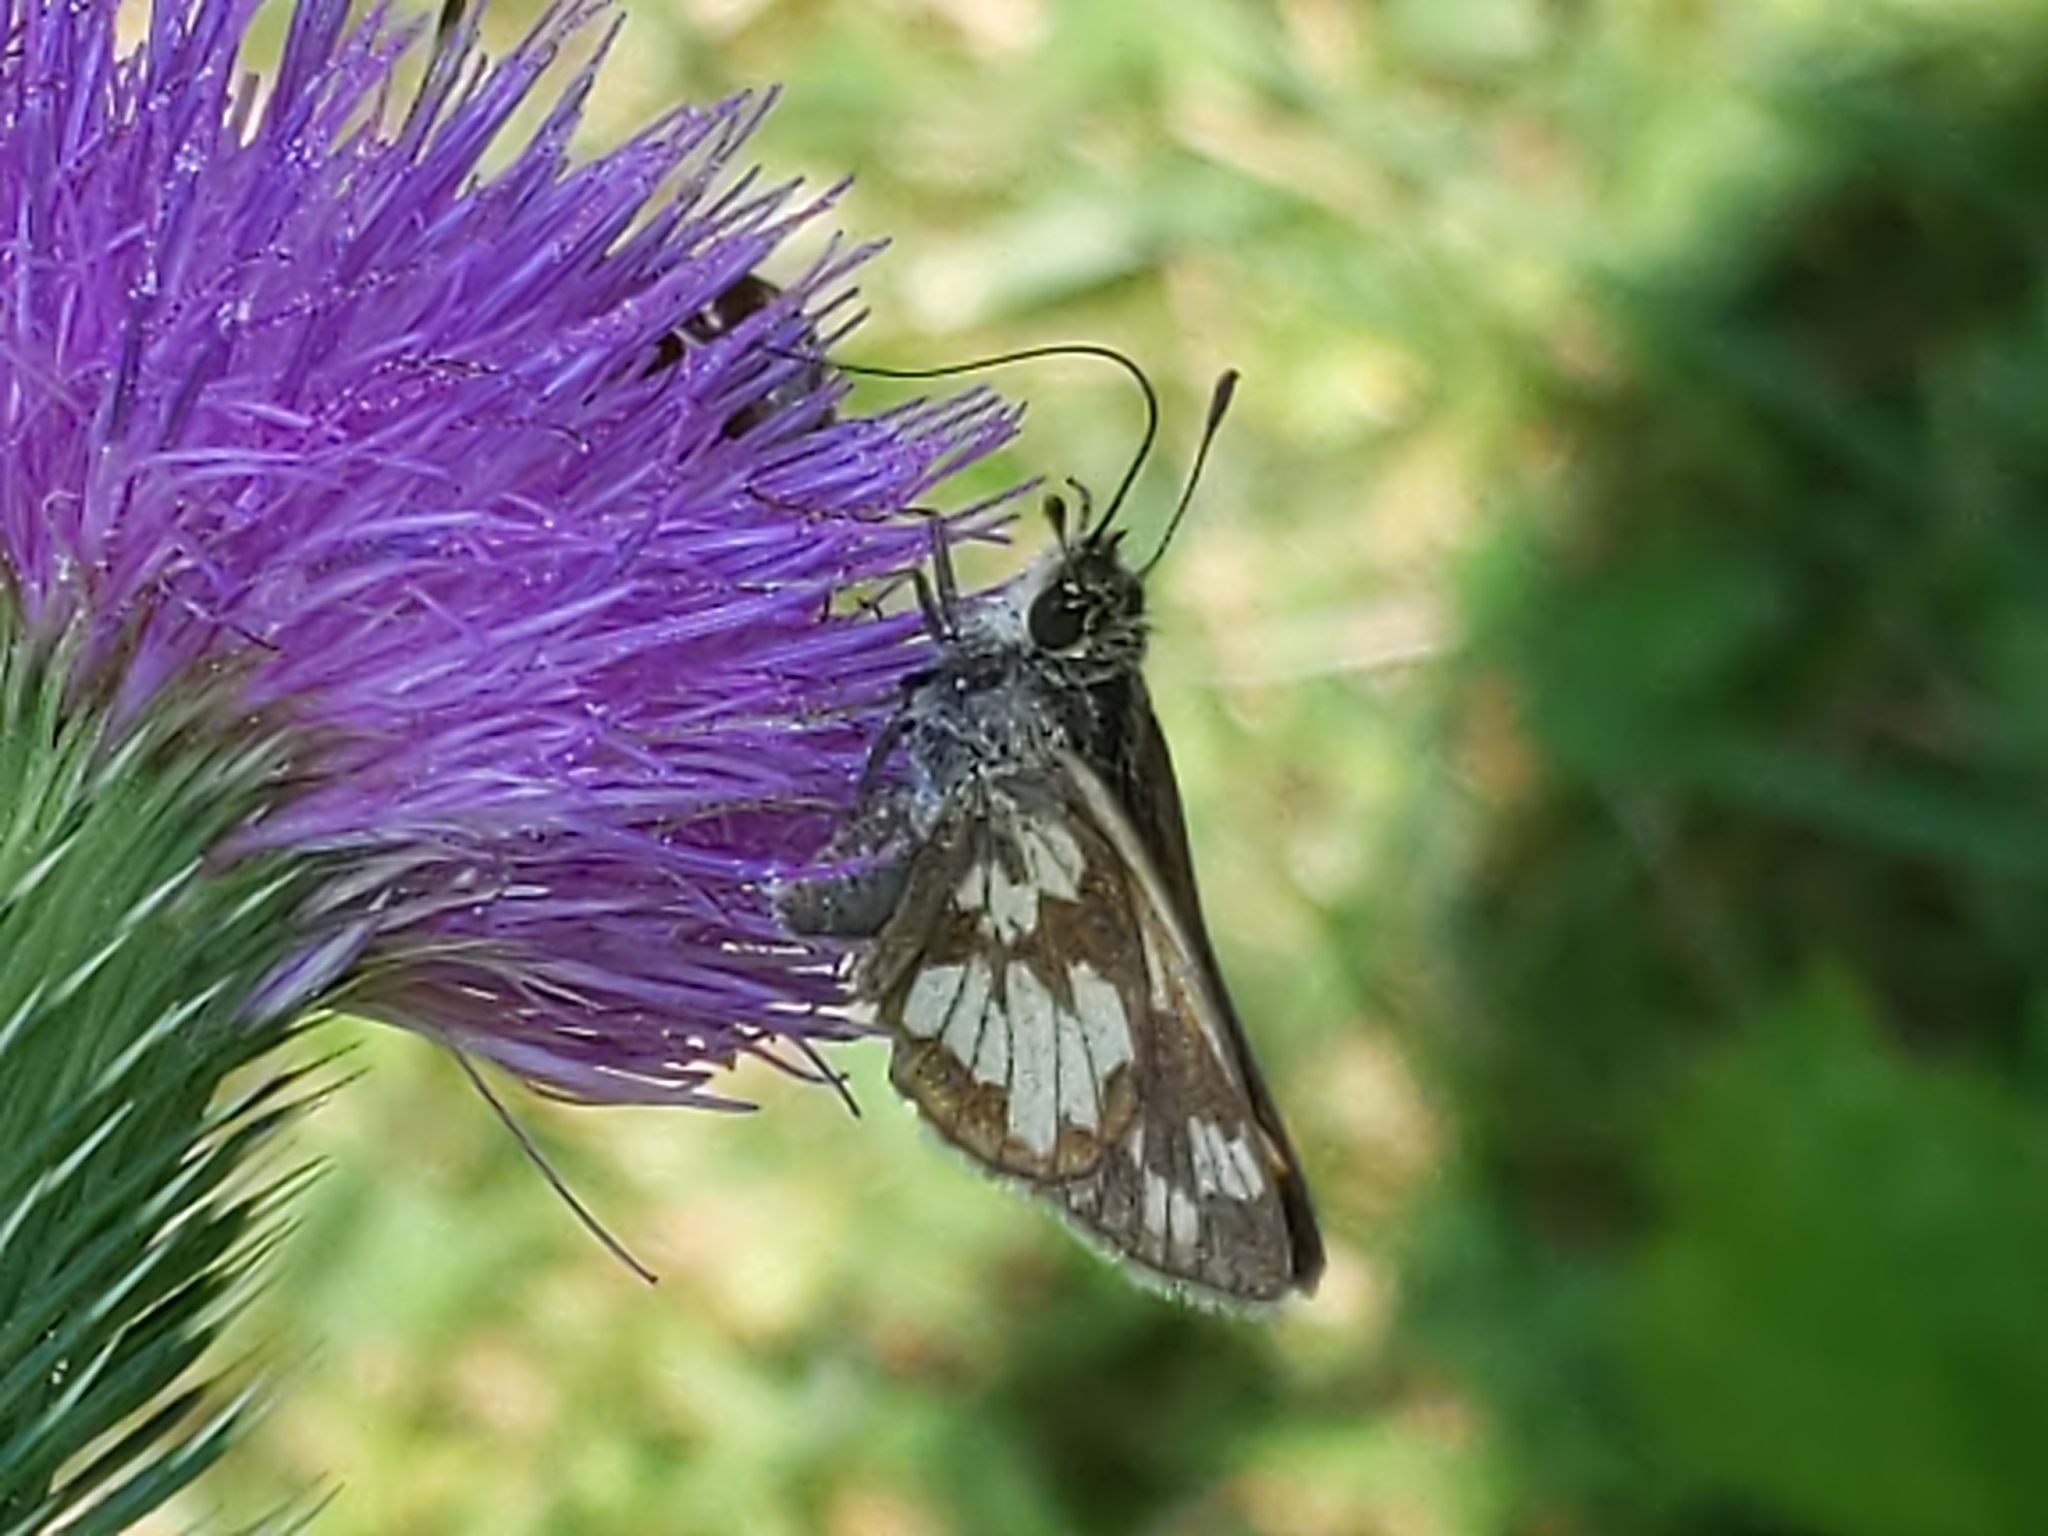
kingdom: Animalia
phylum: Arthropoda
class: Insecta
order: Lepidoptera
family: Hesperiidae
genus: Polites
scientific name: Polites coras
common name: Peck's skipper
